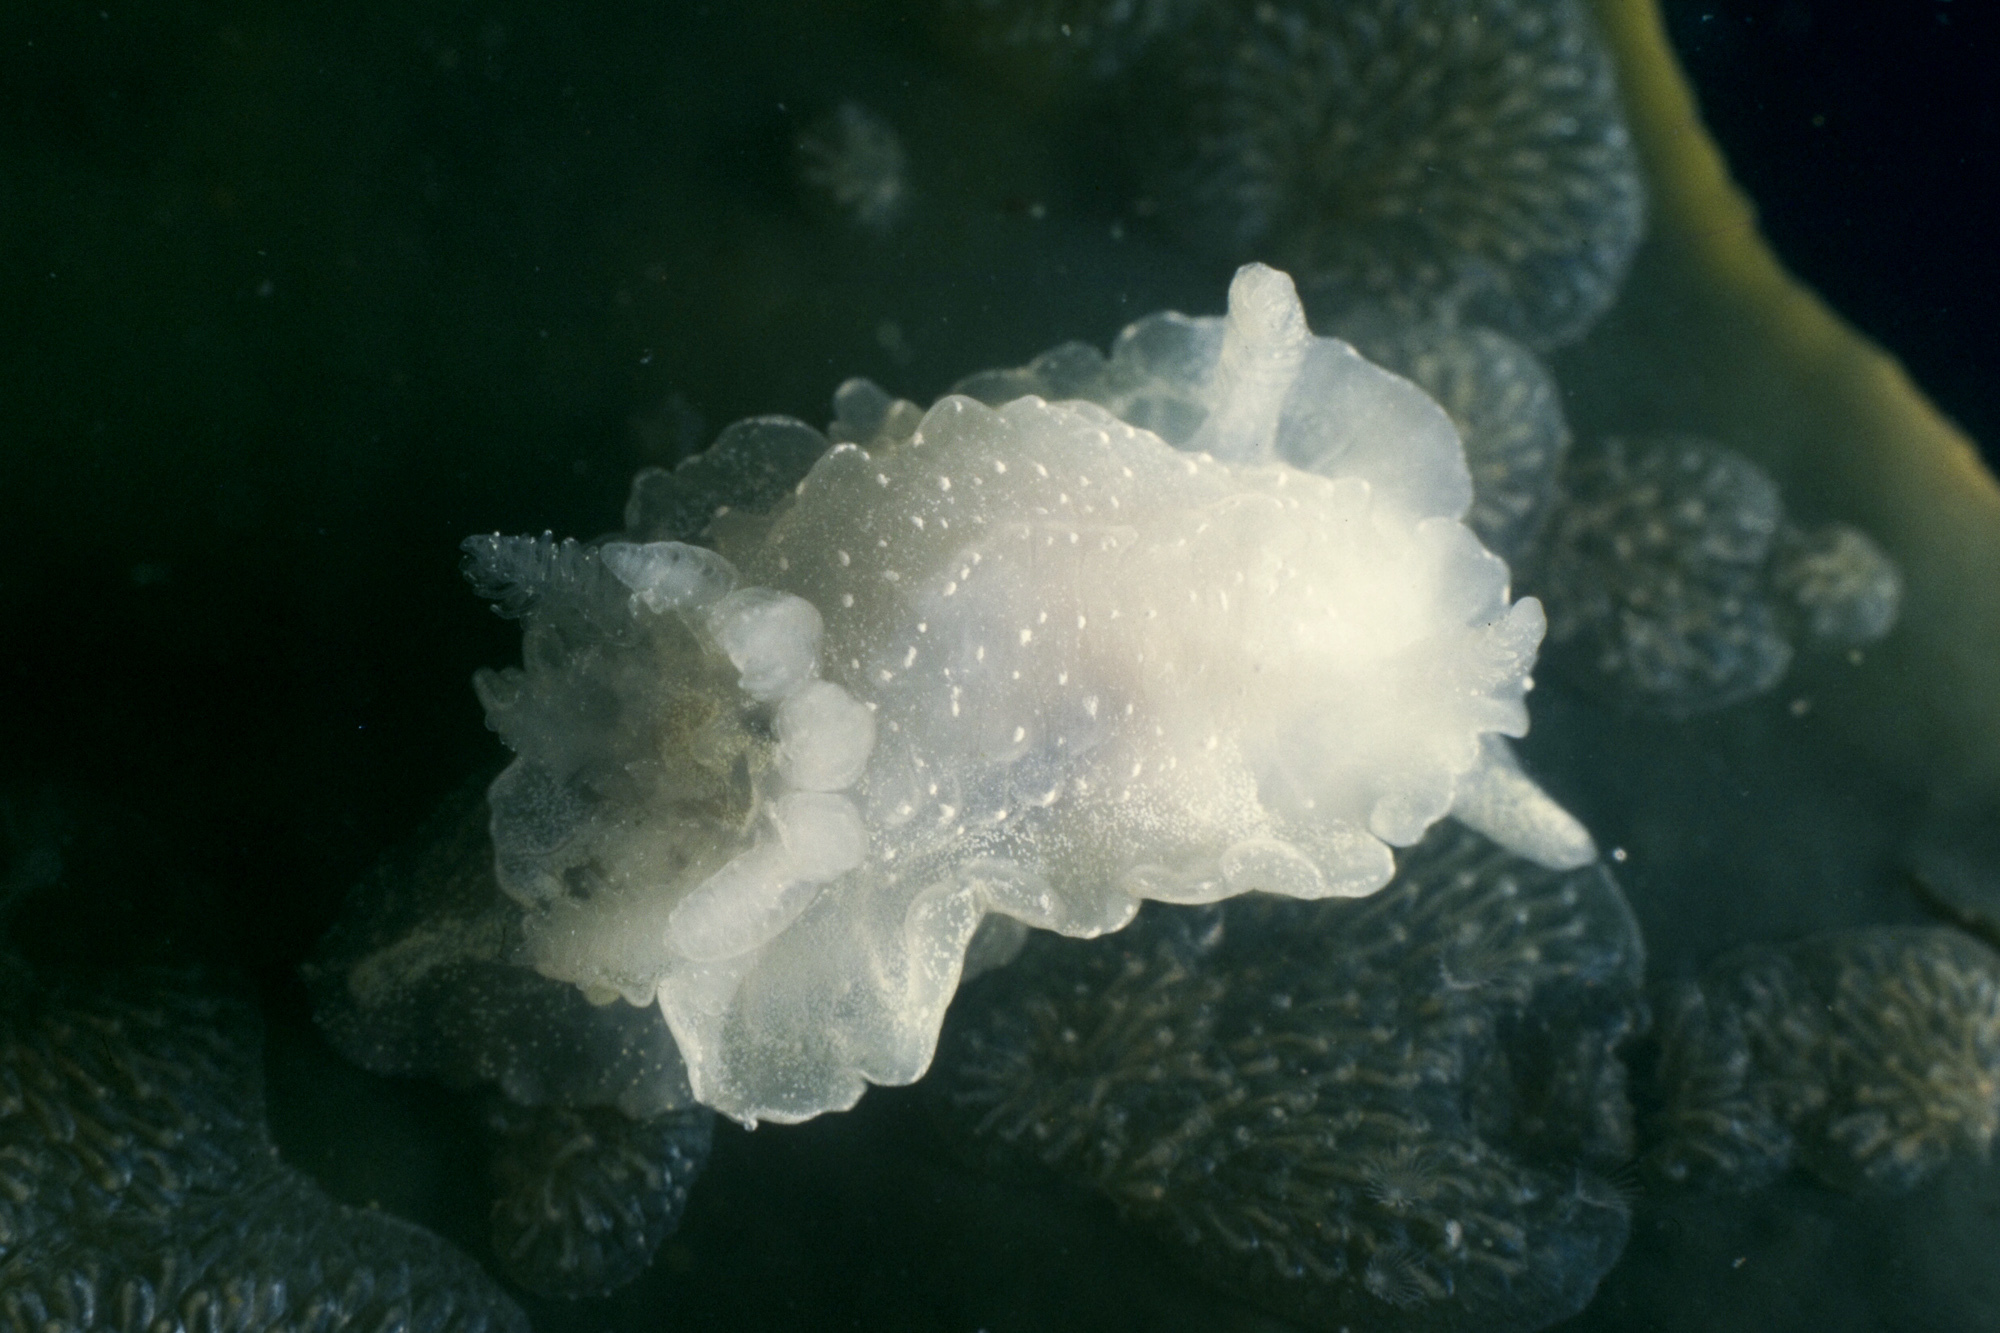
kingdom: Animalia
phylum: Mollusca
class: Gastropoda
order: Nudibranchia
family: Goniodorididae
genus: Okenia
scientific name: Okenia
